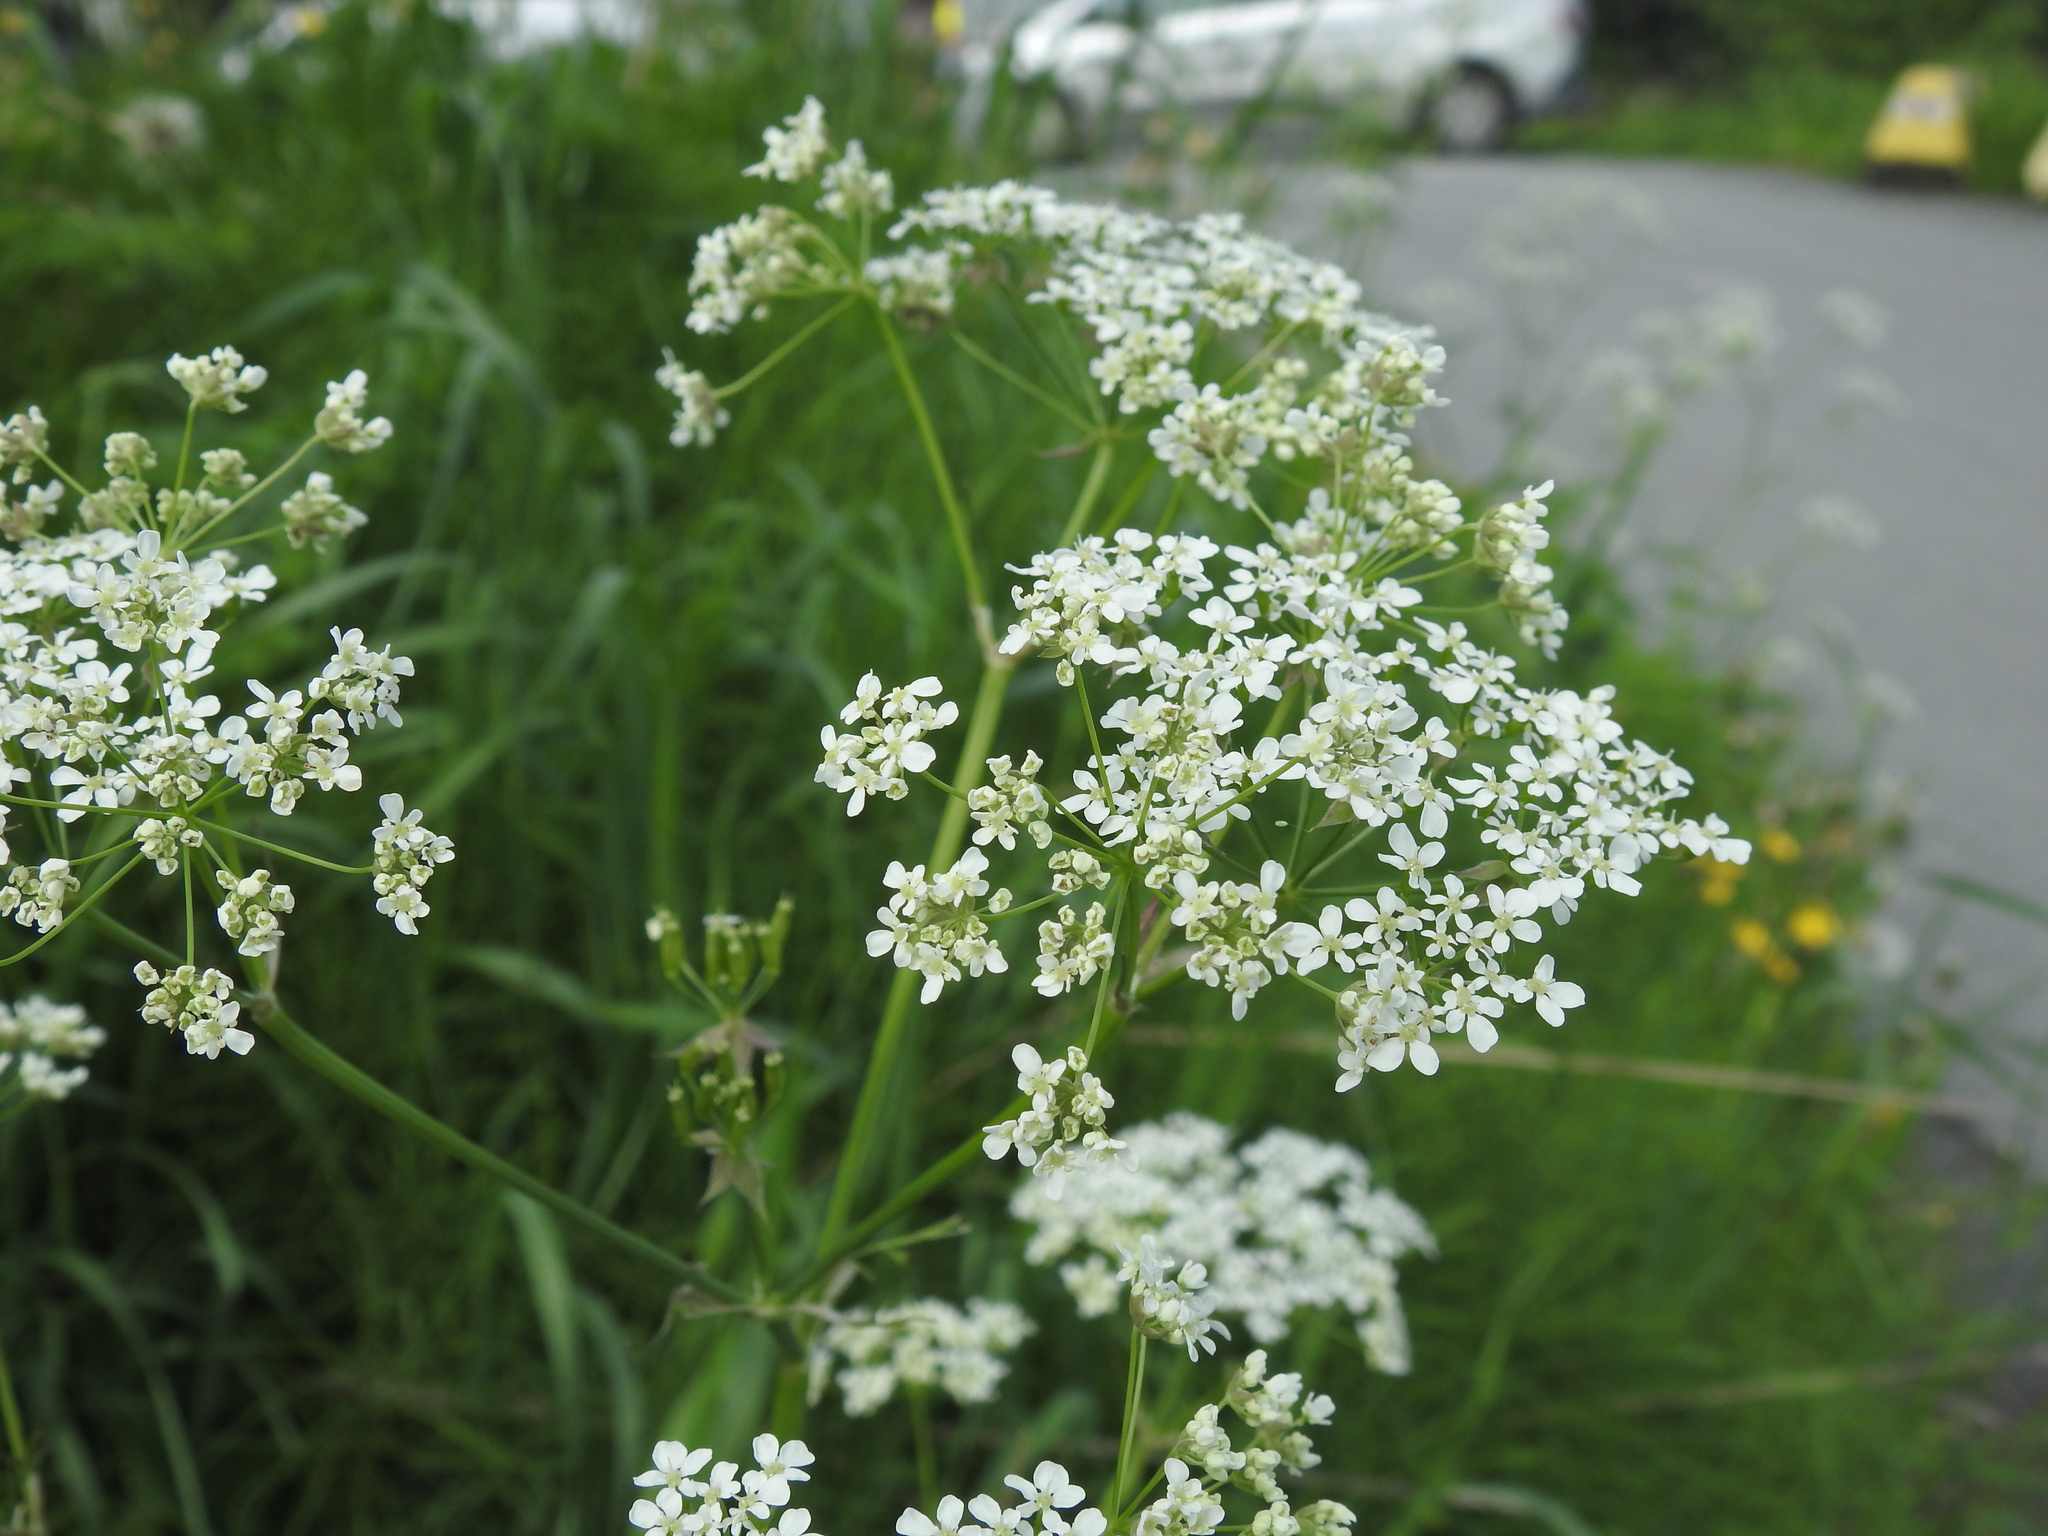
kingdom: Plantae
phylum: Tracheophyta
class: Magnoliopsida
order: Apiales
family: Apiaceae
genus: Anthriscus
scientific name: Anthriscus sylvestris
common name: Cow parsley
